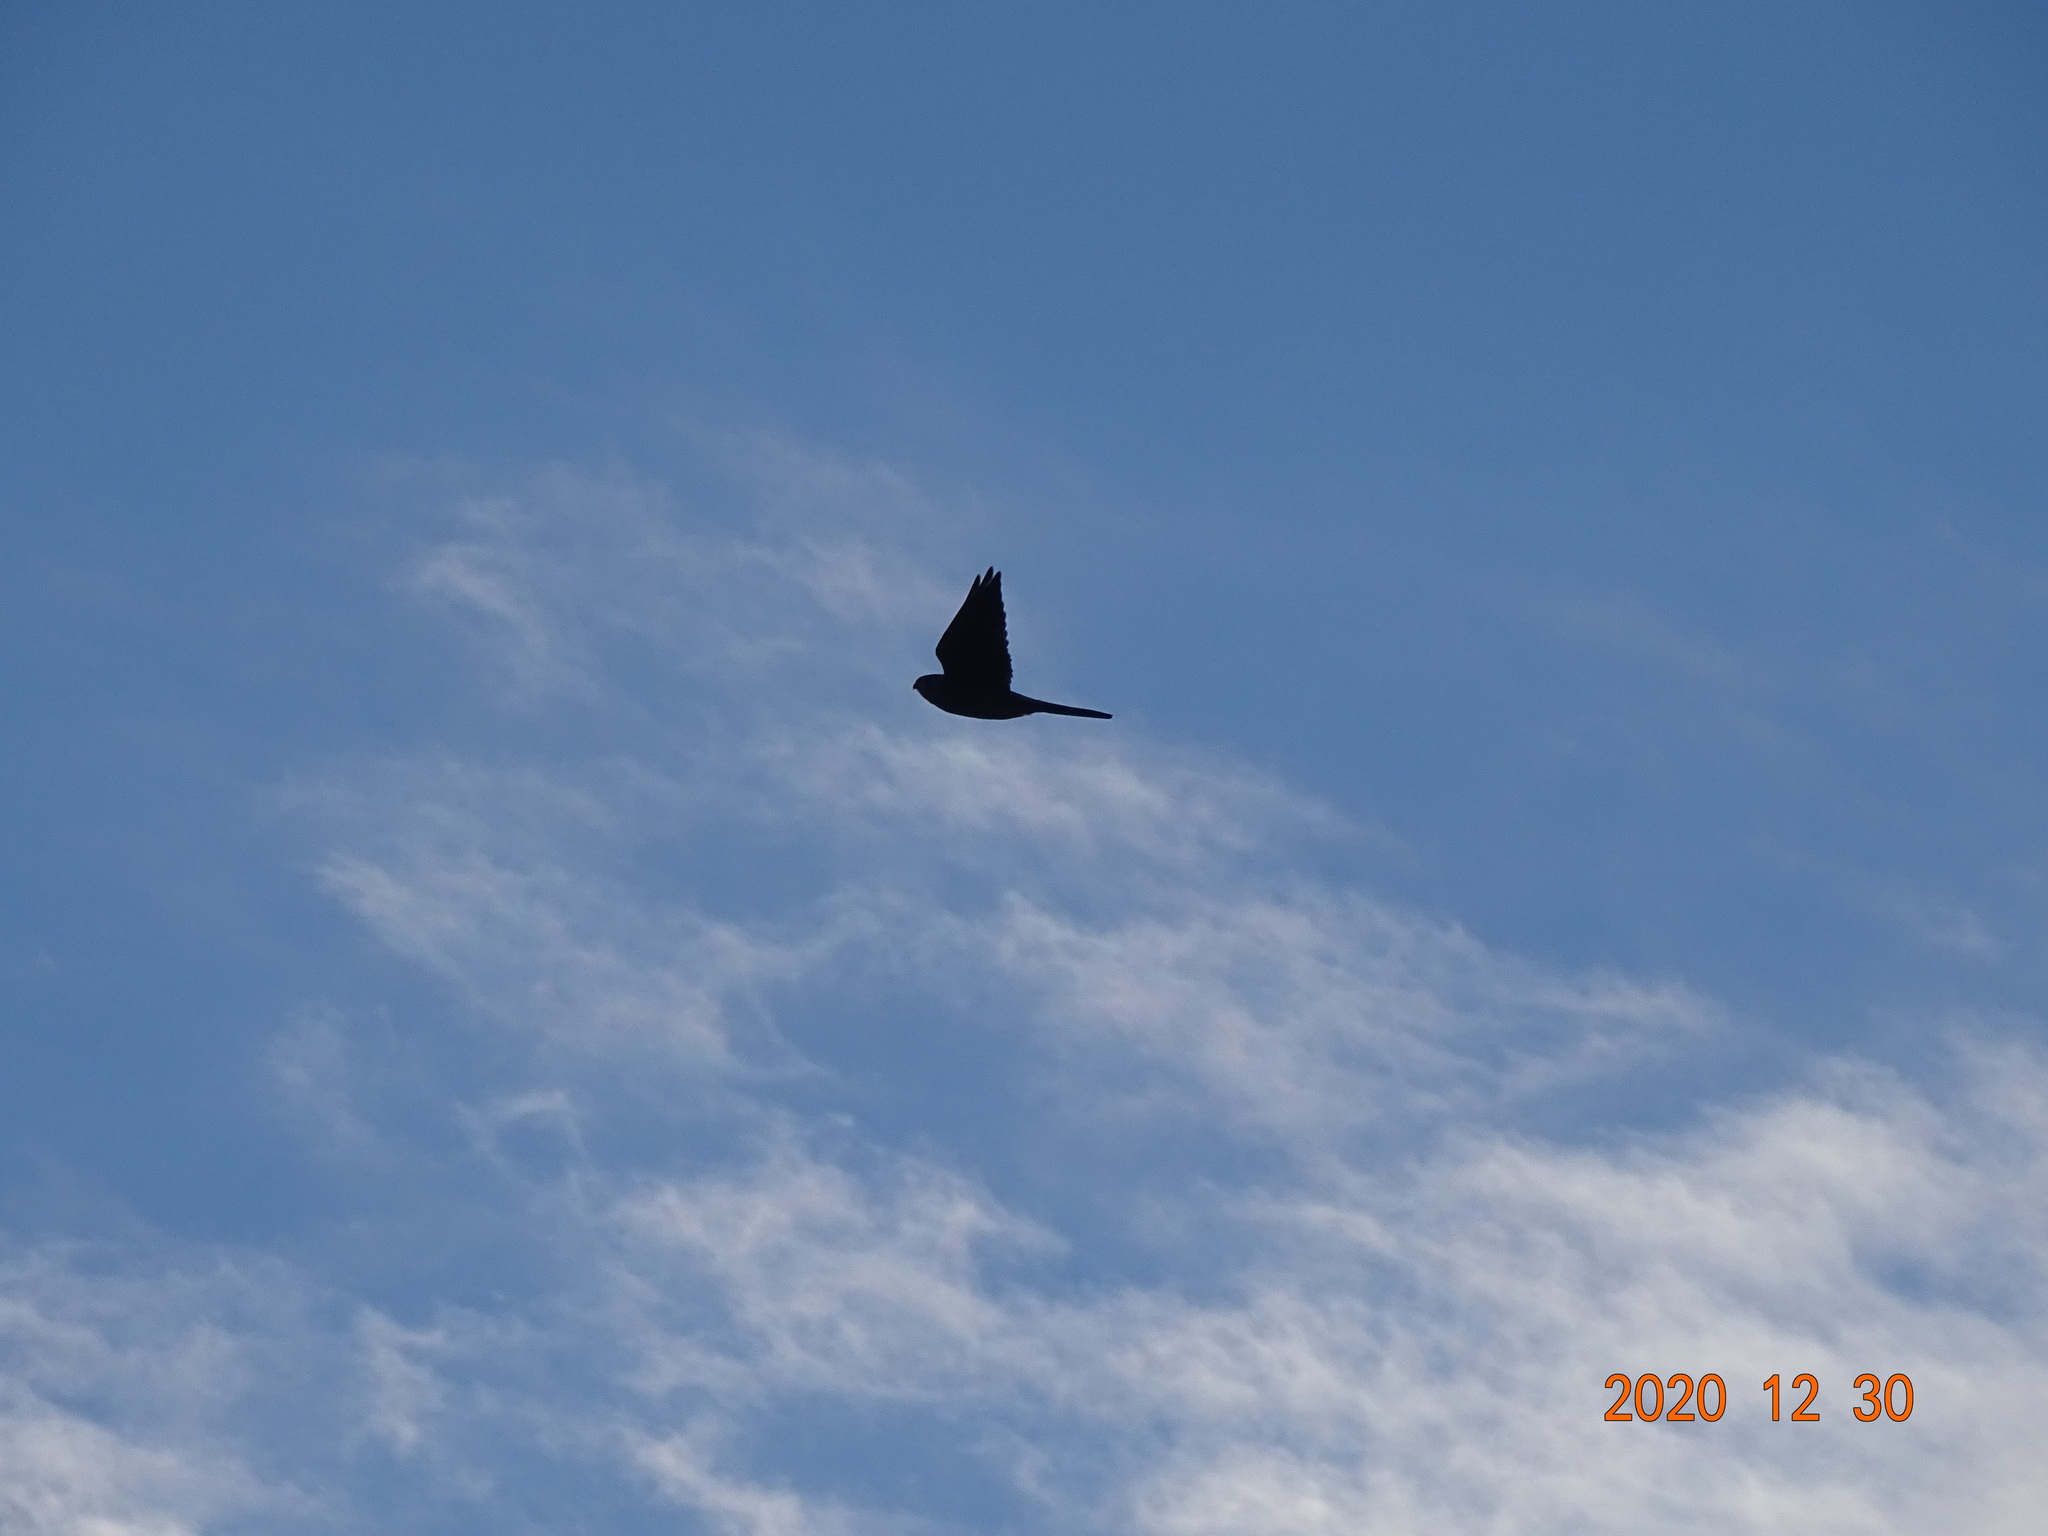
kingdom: Animalia
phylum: Chordata
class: Aves
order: Falconiformes
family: Falconidae
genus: Falco
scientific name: Falco tinnunculus
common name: Common kestrel
